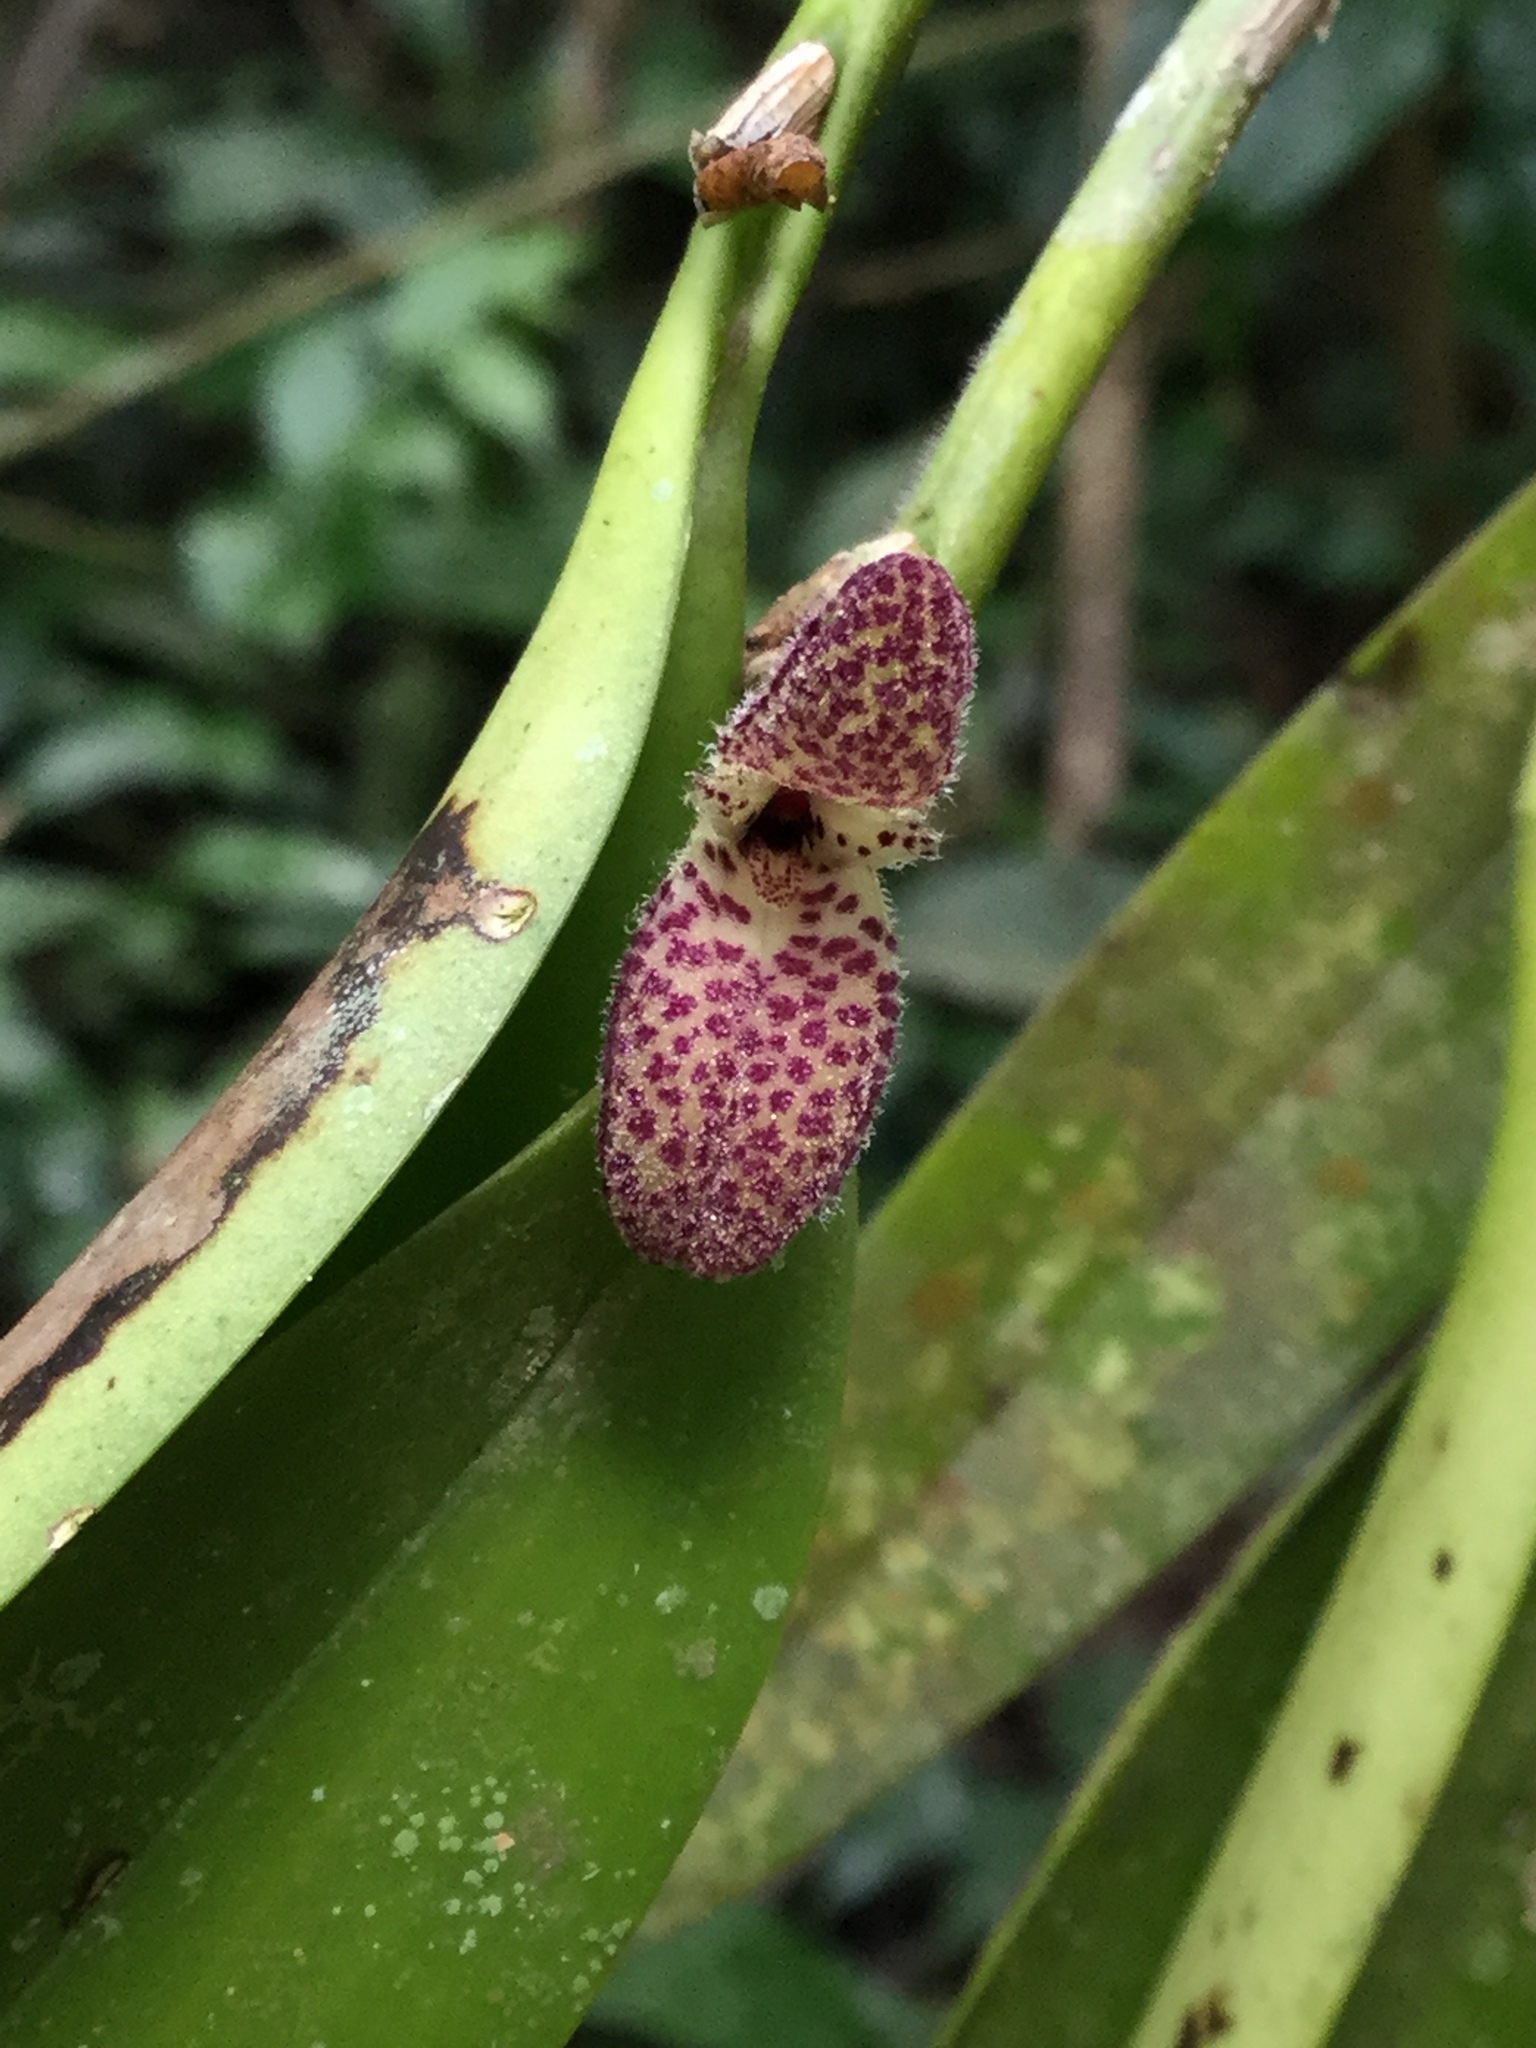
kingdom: Plantae
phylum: Tracheophyta
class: Liliopsida
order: Asparagales
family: Orchidaceae
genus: Restrepiella
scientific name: Restrepiella ophiocephala
